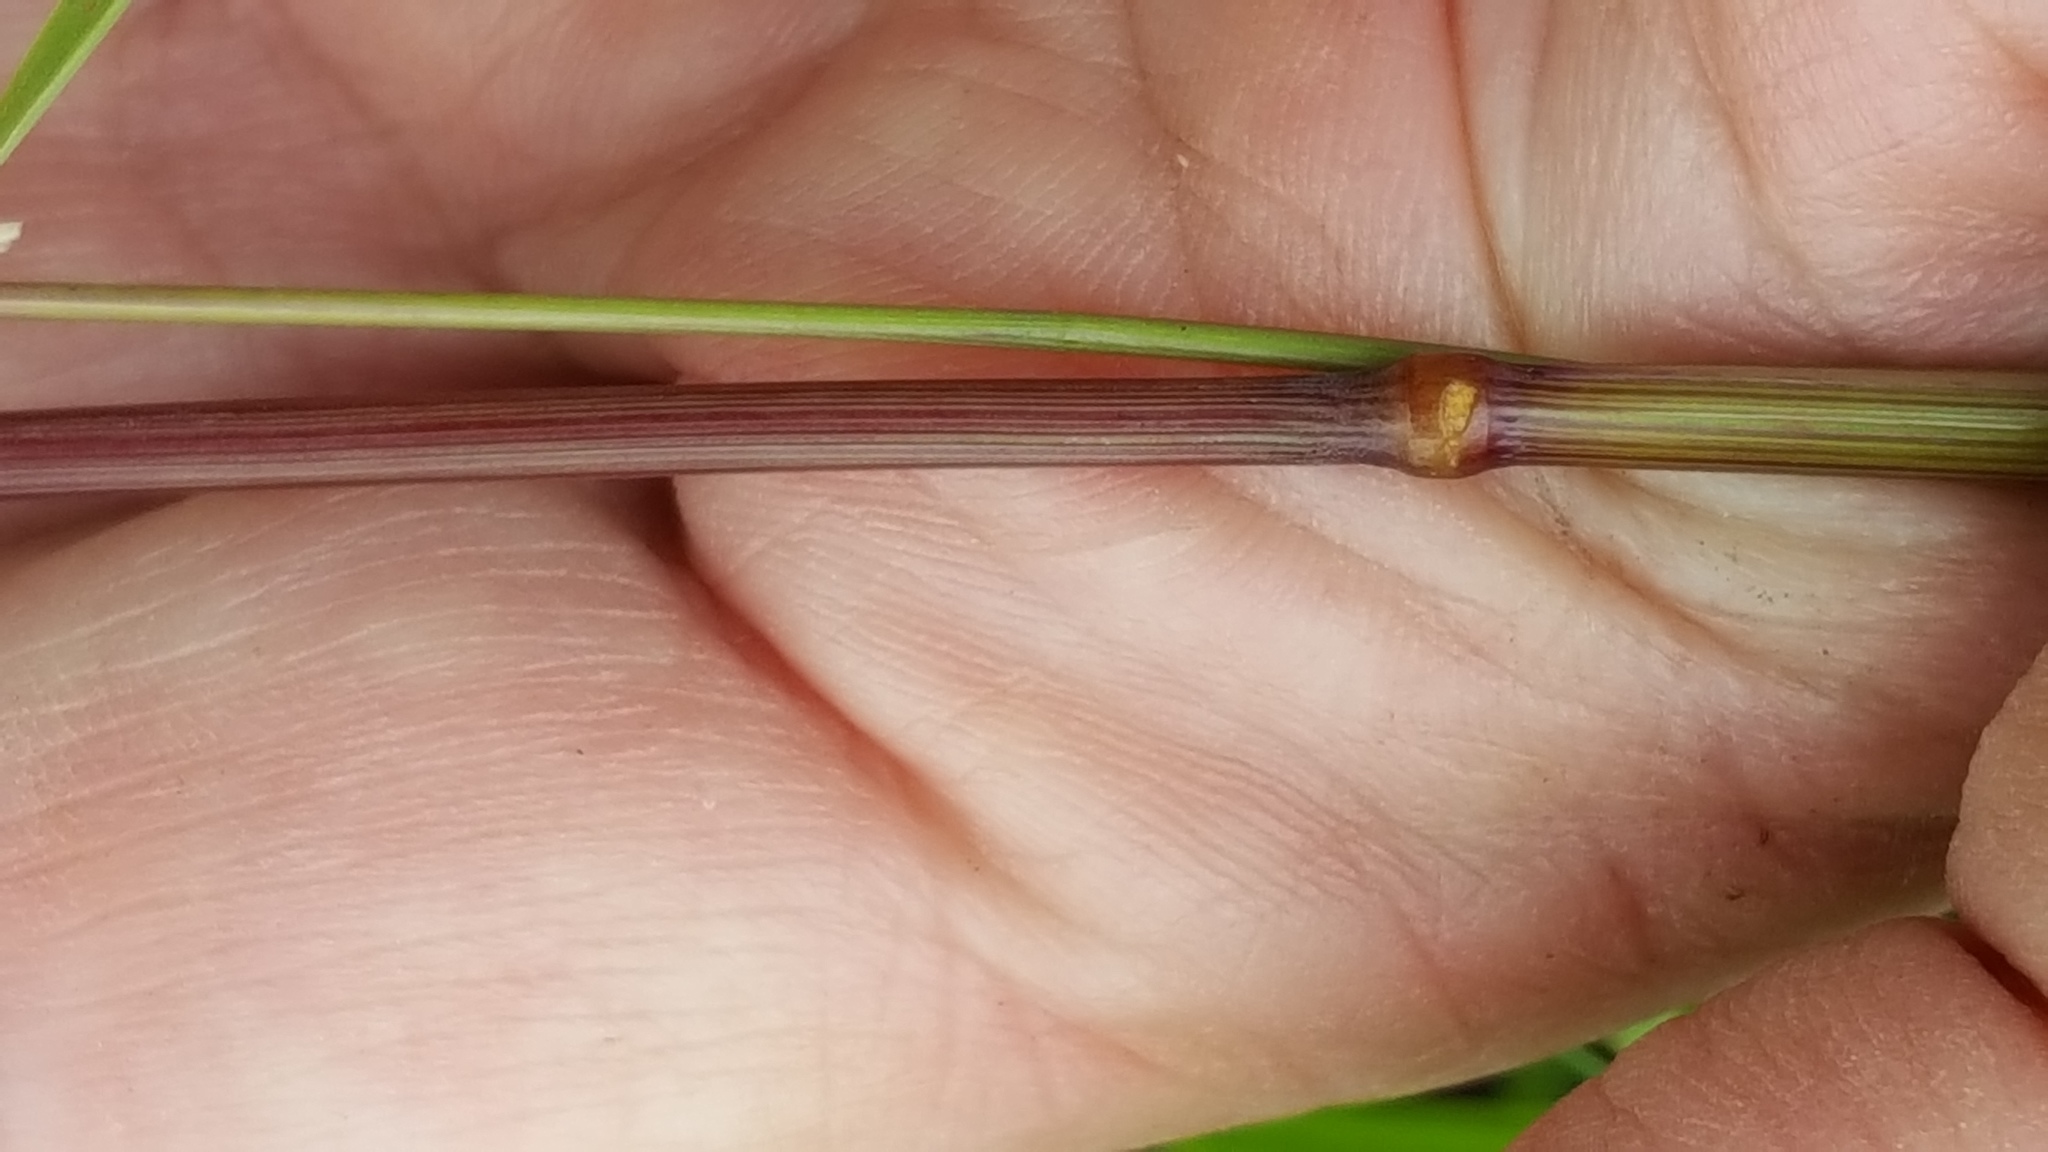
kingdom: Plantae
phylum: Tracheophyta
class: Liliopsida
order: Poales
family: Poaceae
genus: Calamagrostis
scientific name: Calamagrostis canadensis
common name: Canada bluejoint
